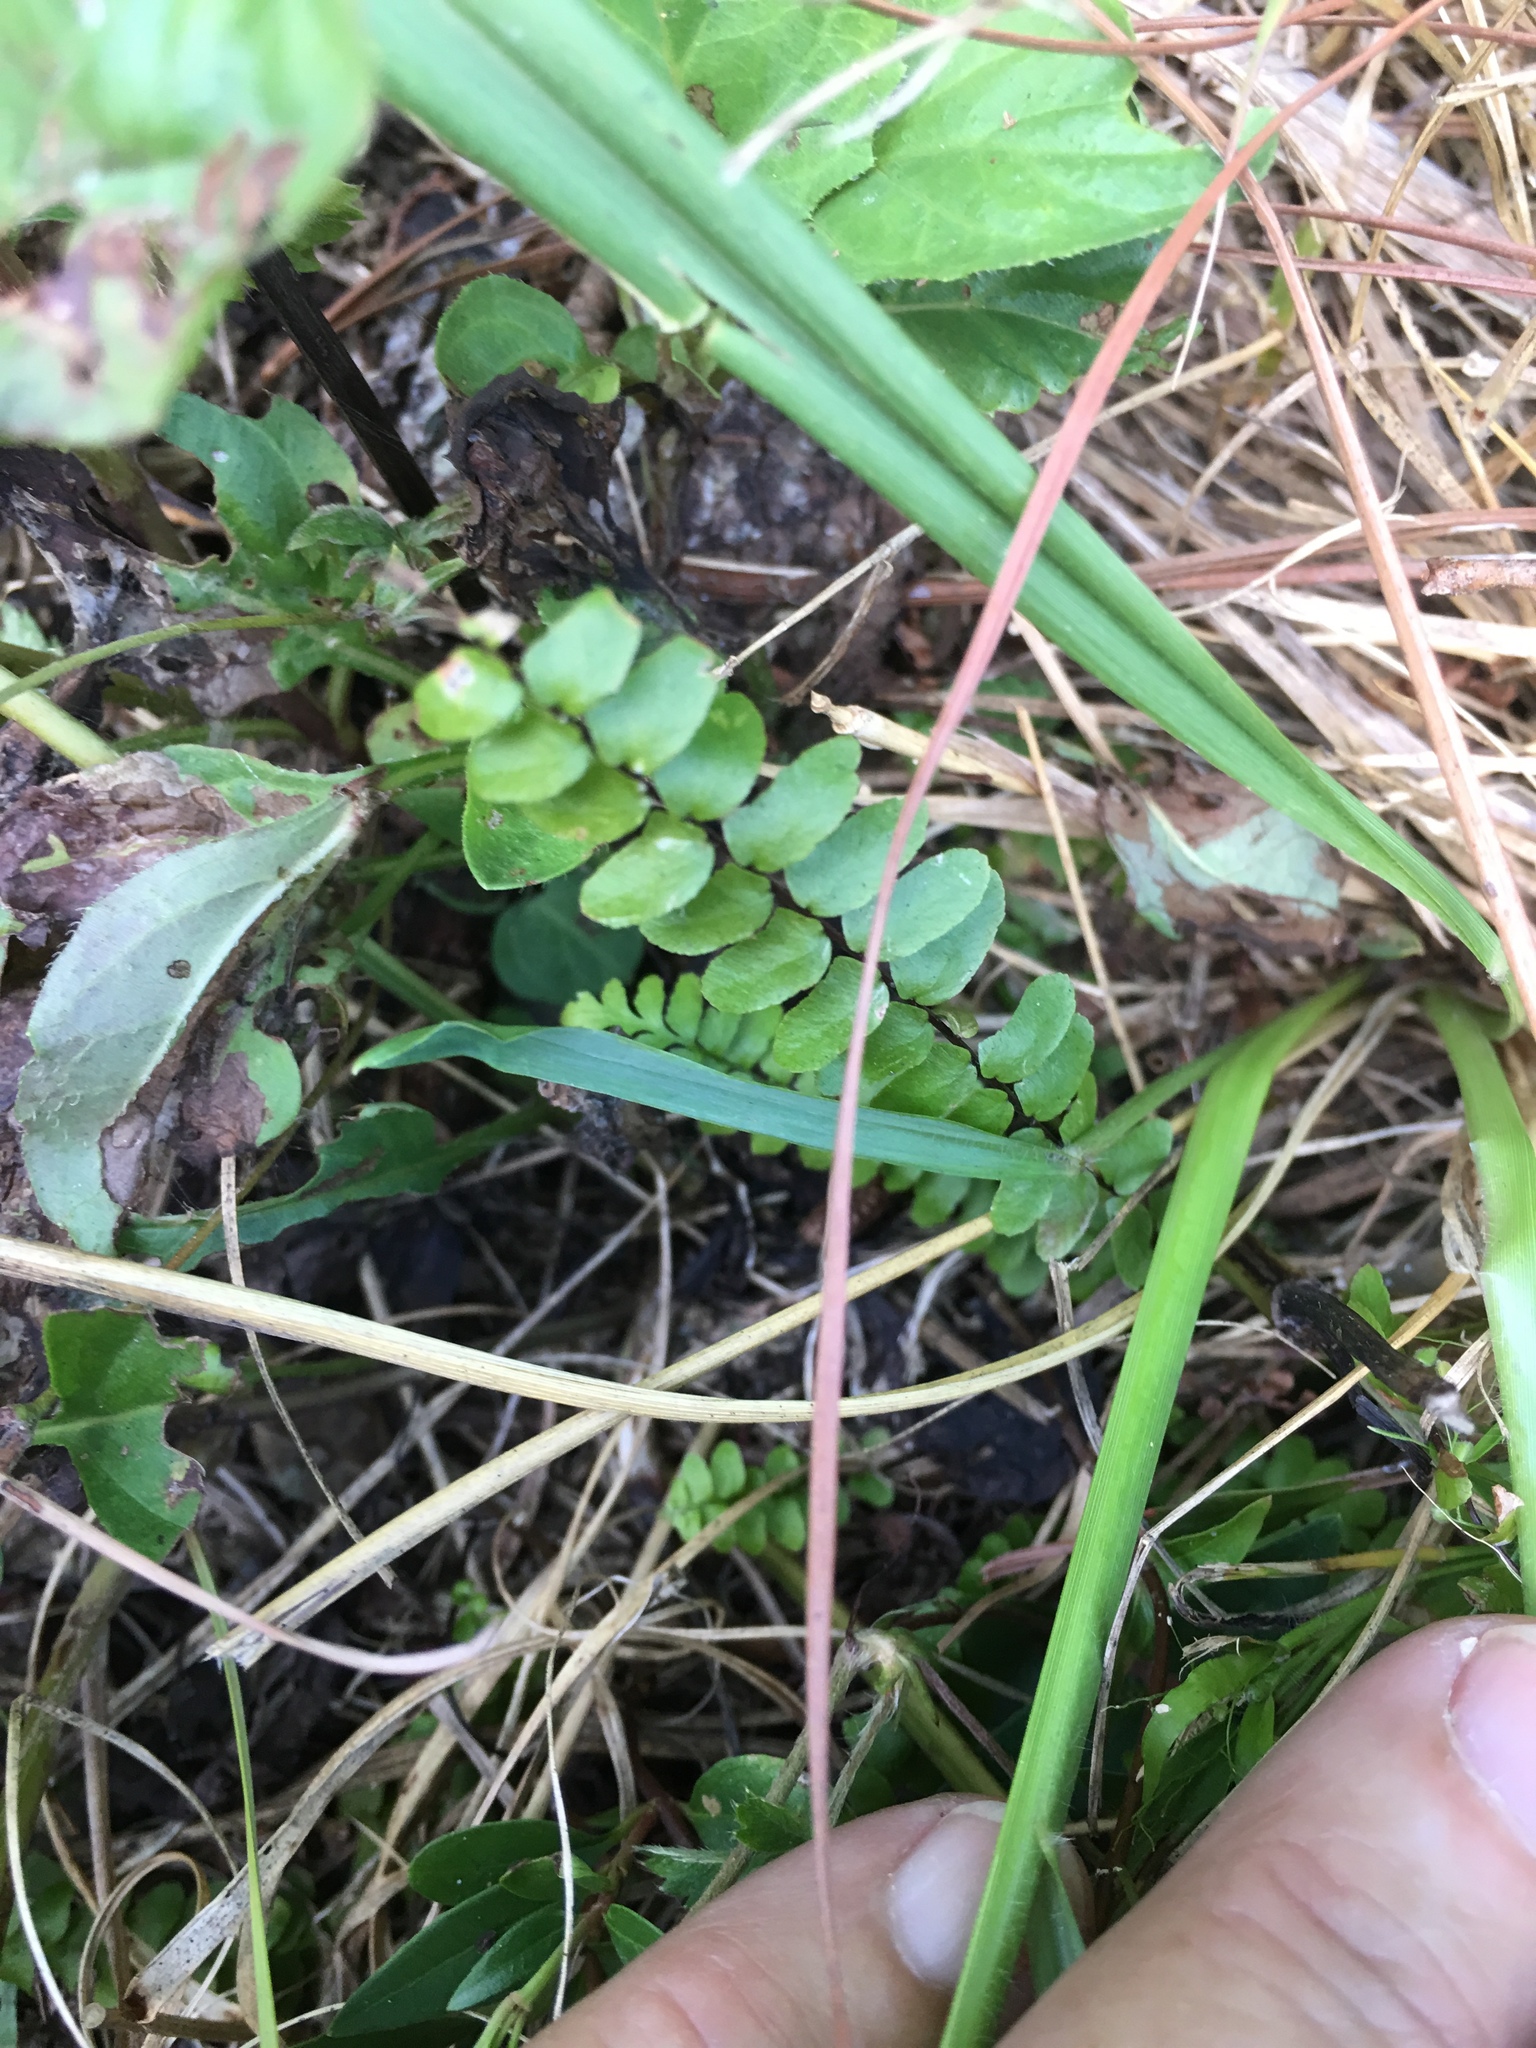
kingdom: Plantae
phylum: Tracheophyta
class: Polypodiopsida
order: Polypodiales
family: Aspleniaceae
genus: Asplenium
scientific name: Asplenium platyneuron
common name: Ebony spleenwort
